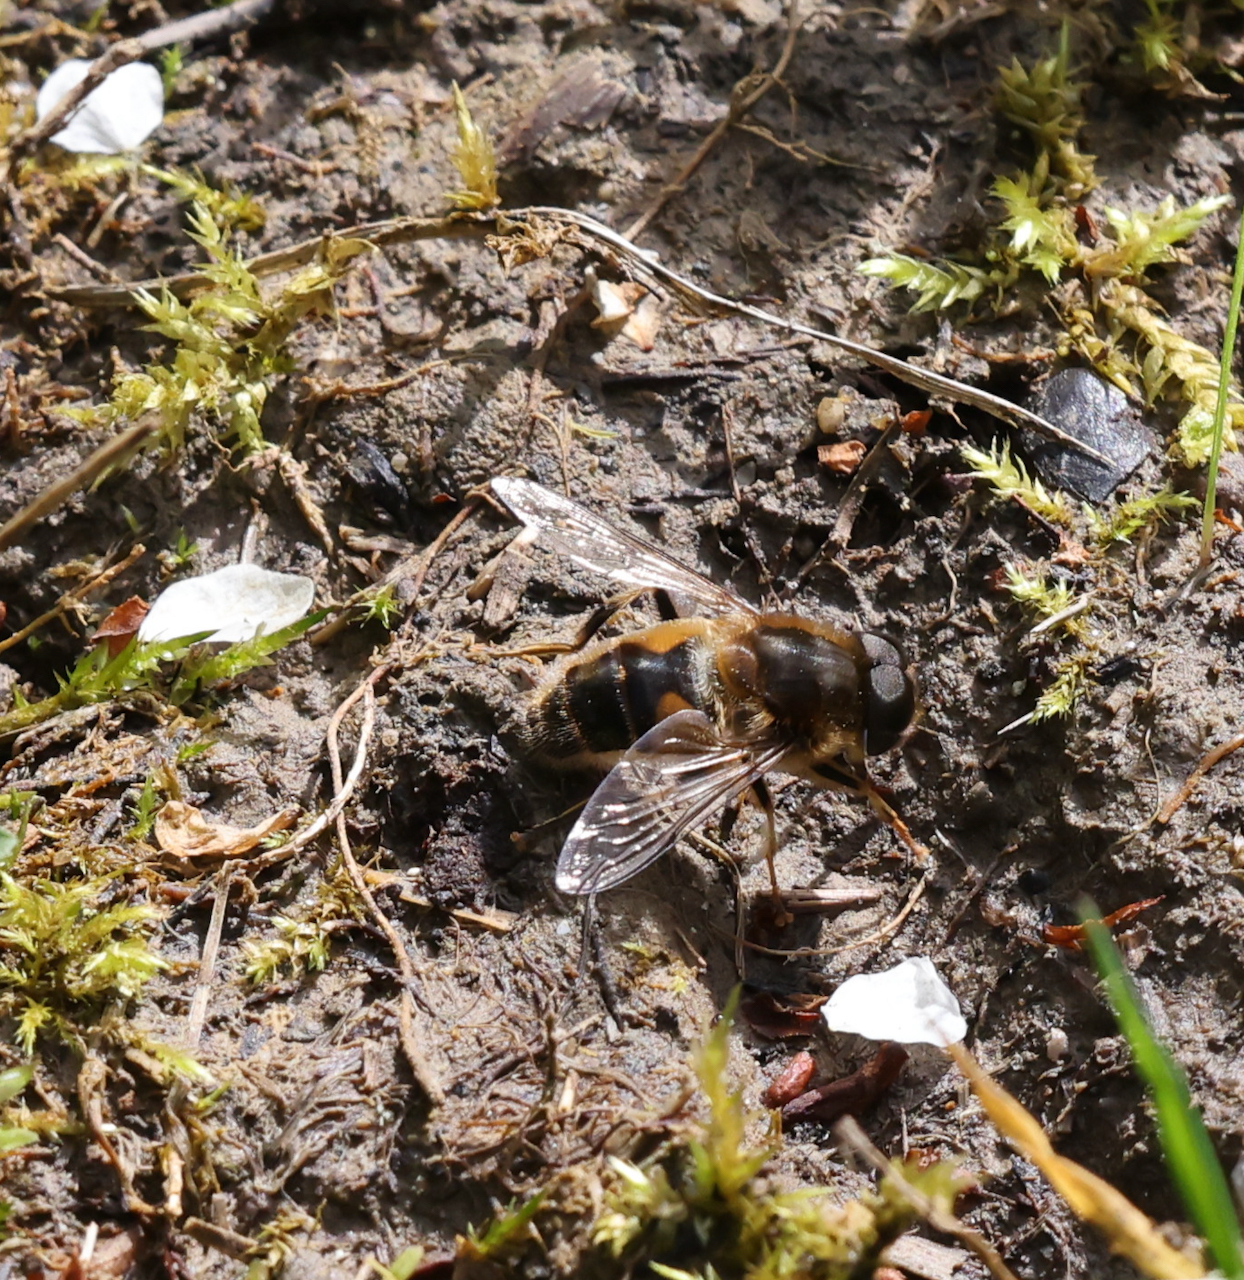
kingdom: Animalia
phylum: Arthropoda
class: Insecta
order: Diptera
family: Syrphidae
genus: Eristalis
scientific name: Eristalis pertinax
